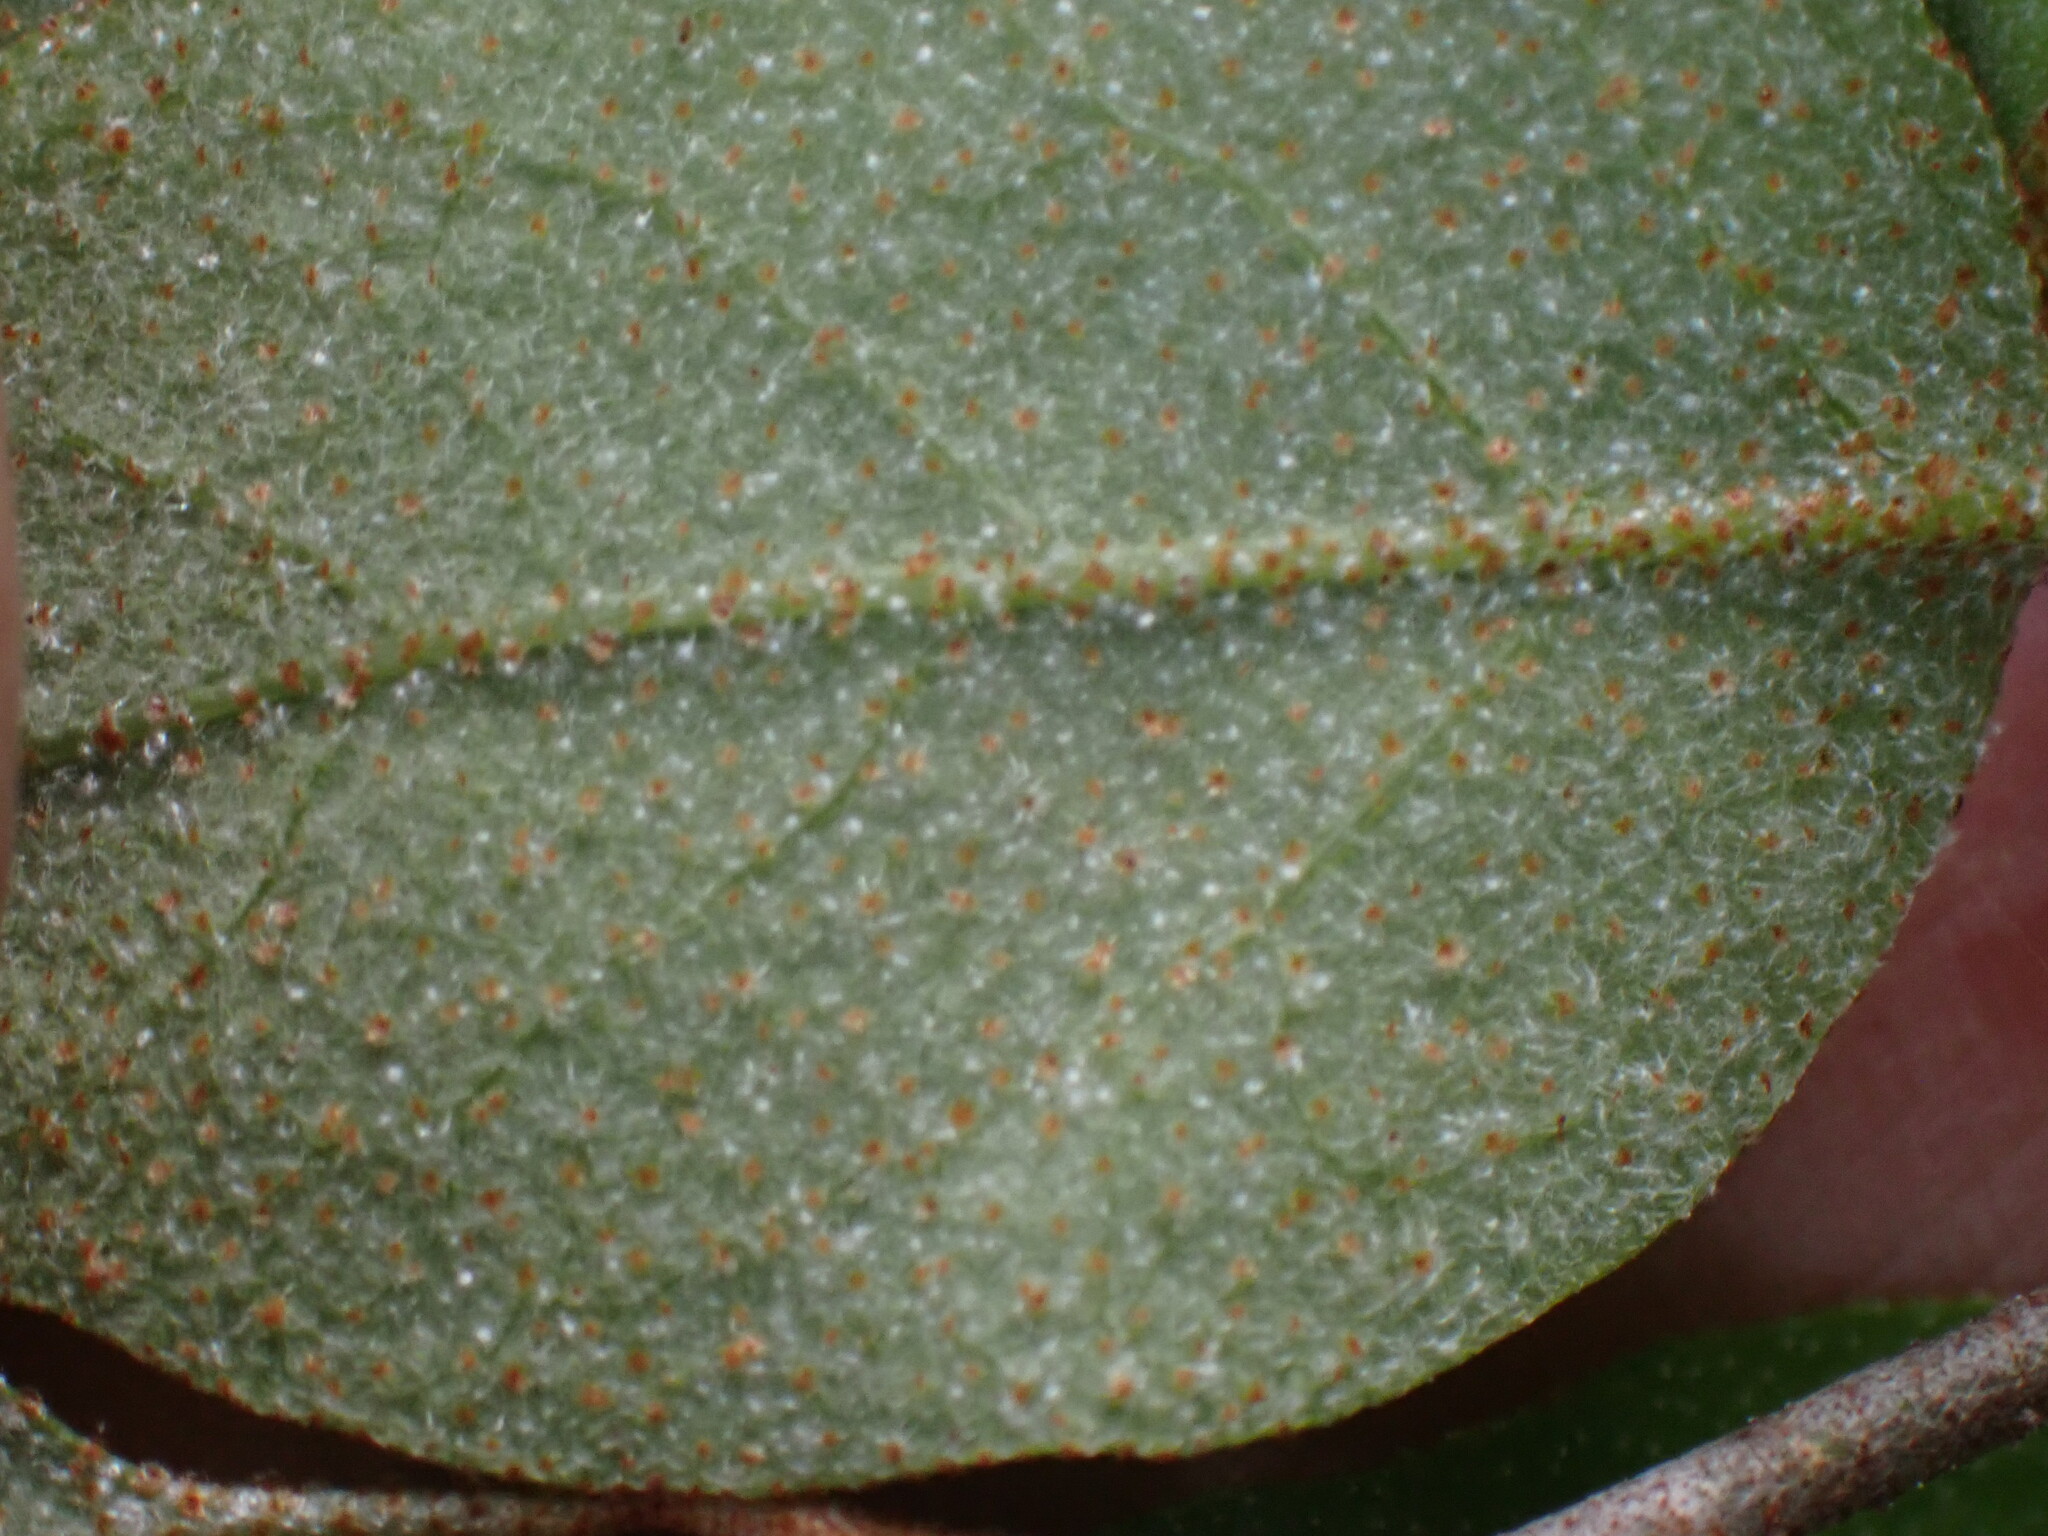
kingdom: Plantae
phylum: Tracheophyta
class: Magnoliopsida
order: Rosales
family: Elaeagnaceae
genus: Shepherdia
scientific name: Shepherdia canadensis
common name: Soapberry
